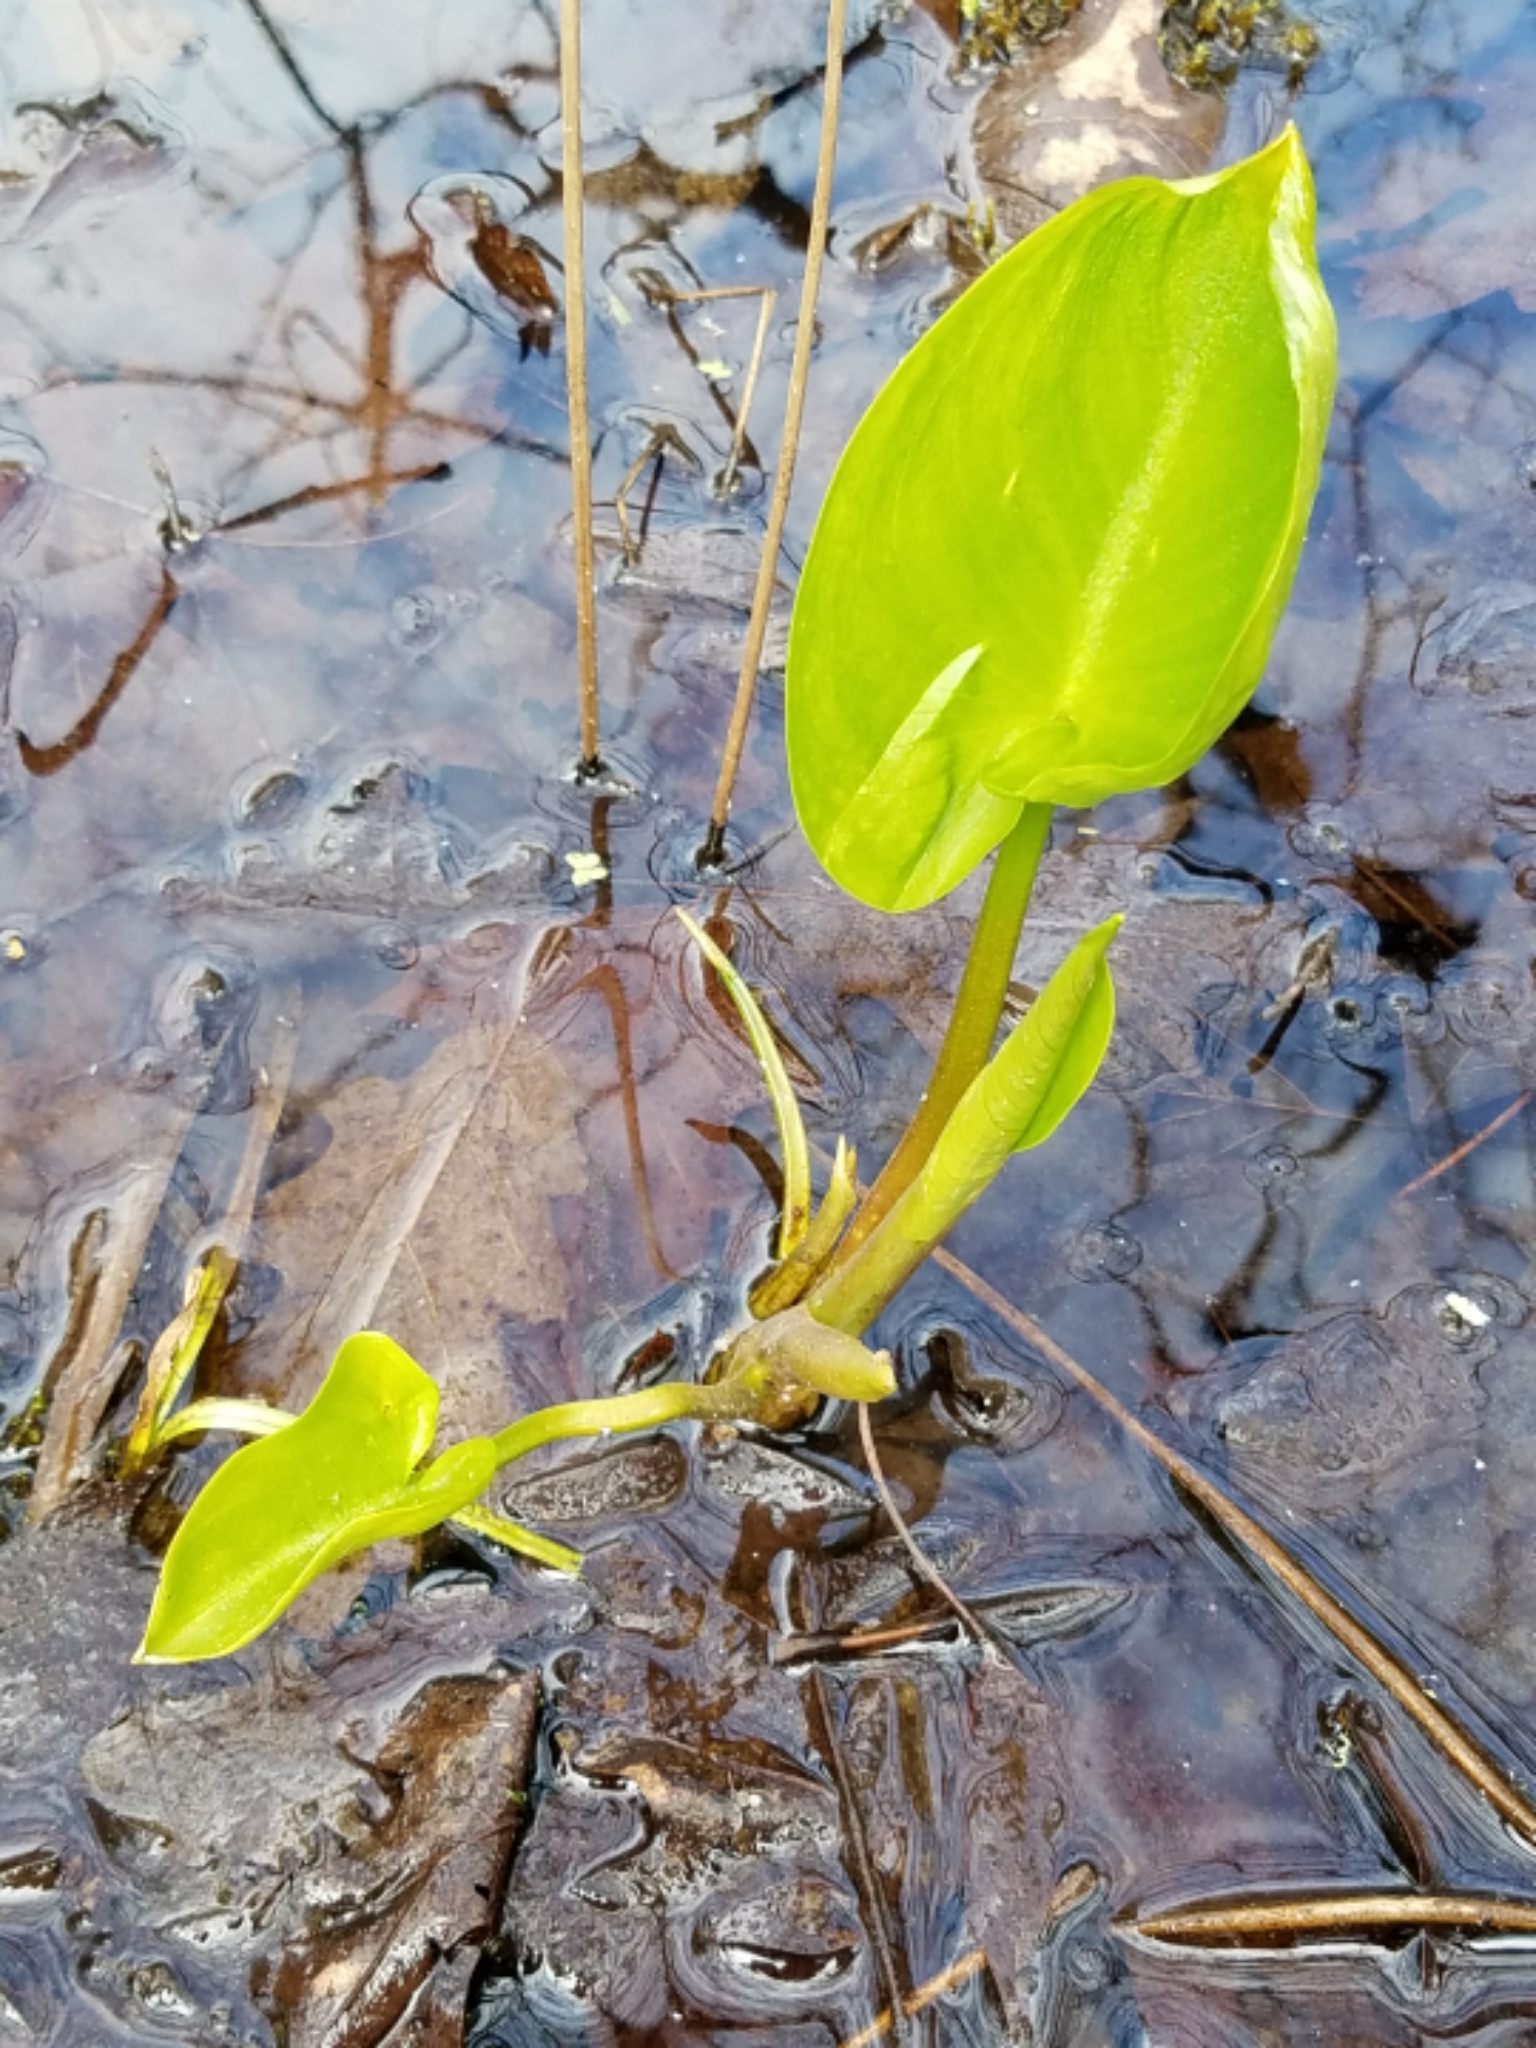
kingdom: Plantae
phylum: Tracheophyta
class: Liliopsida
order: Alismatales
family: Araceae
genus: Calla
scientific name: Calla palustris
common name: Bog arum
